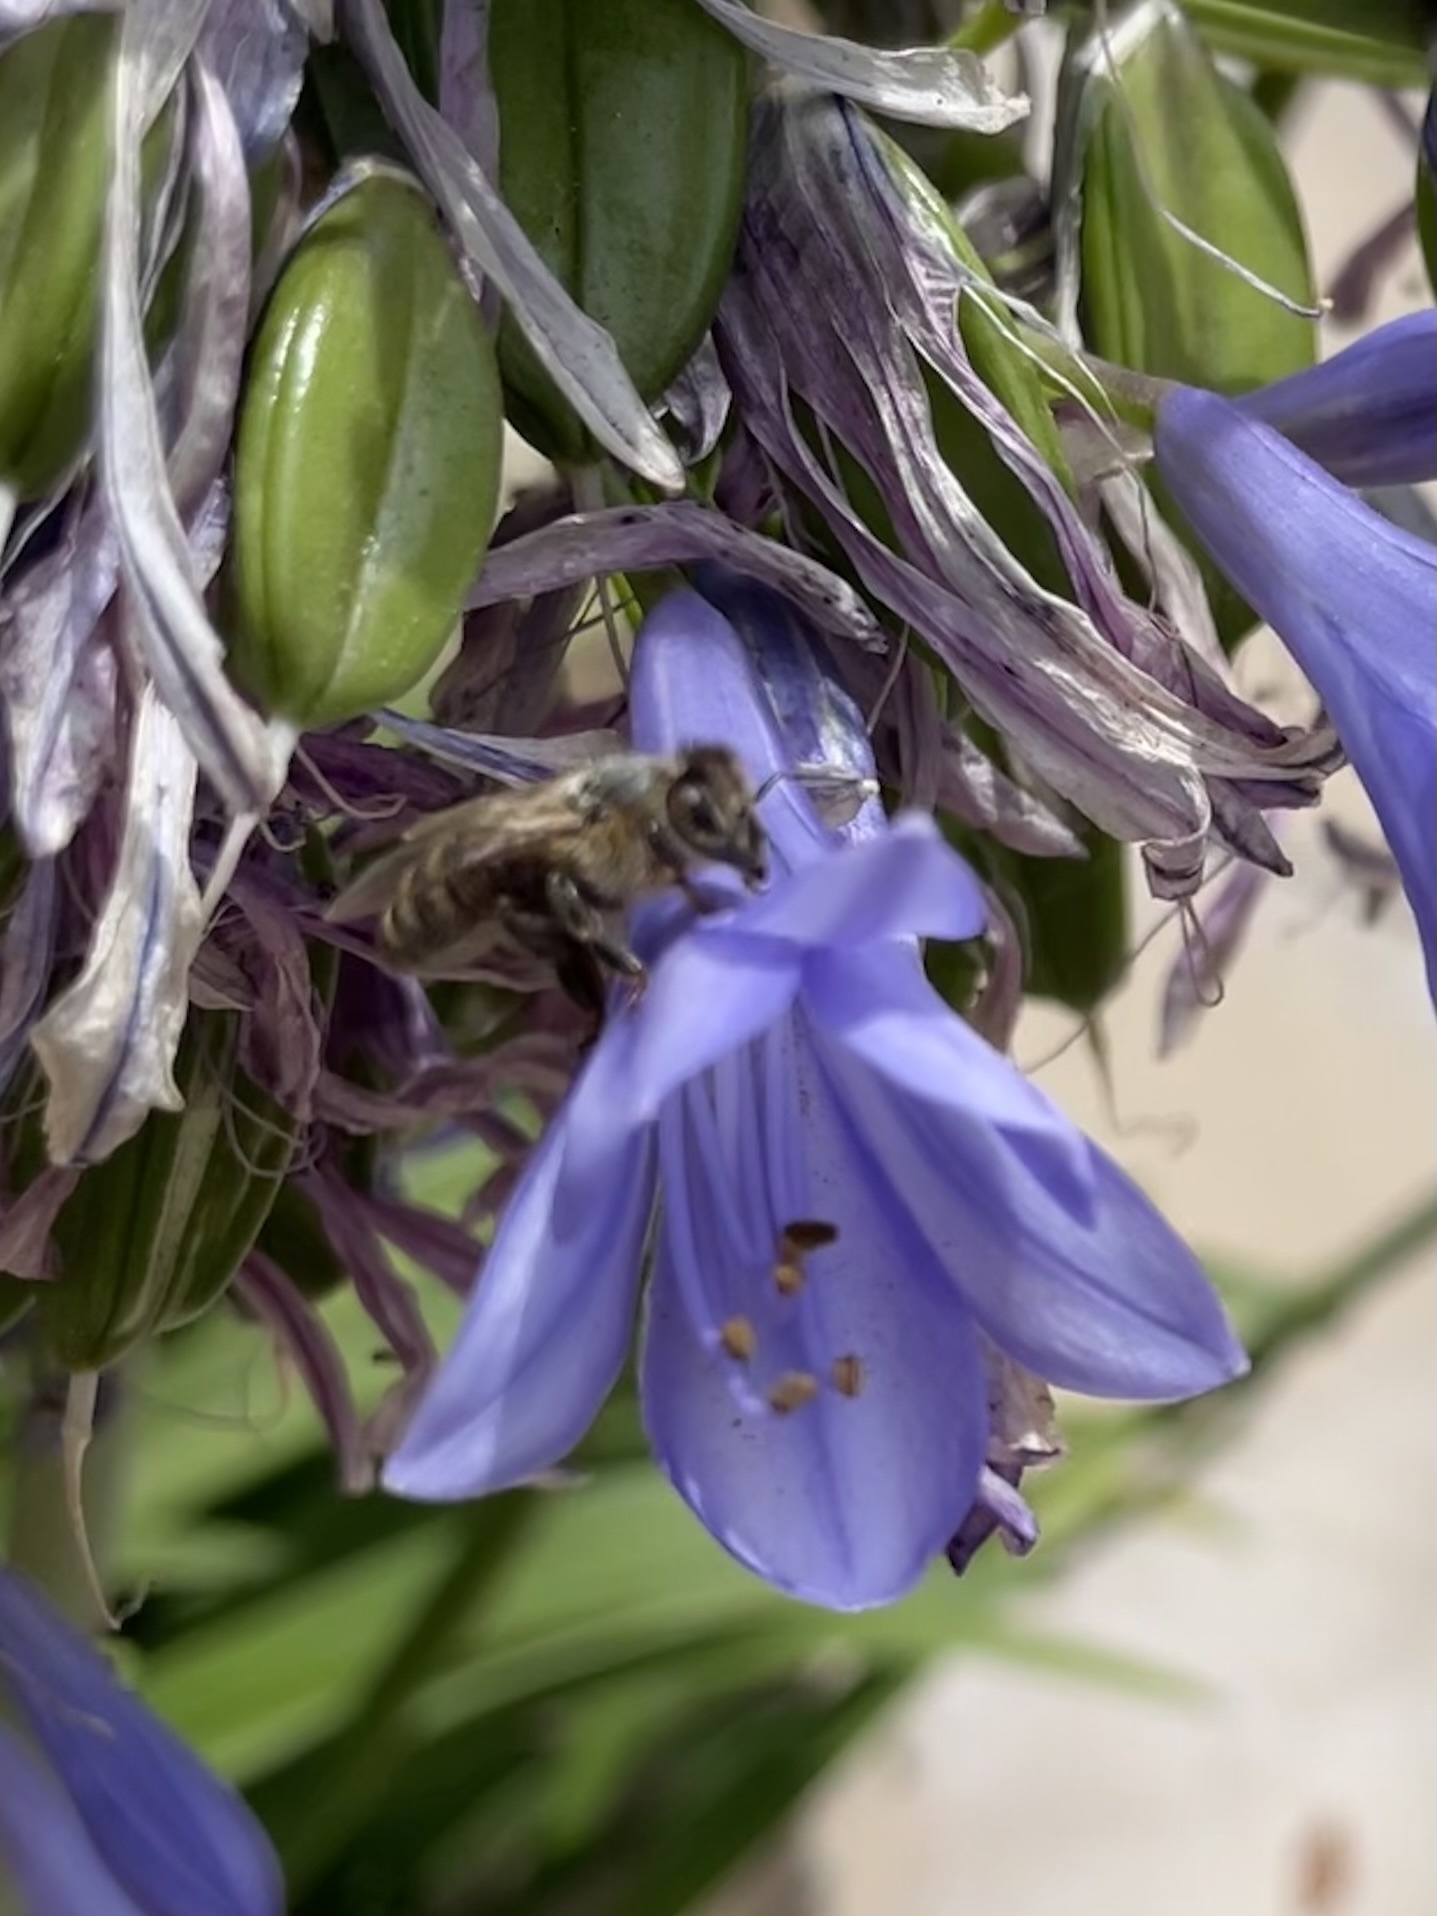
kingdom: Animalia
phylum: Arthropoda
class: Insecta
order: Hymenoptera
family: Apidae
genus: Apis
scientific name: Apis mellifera
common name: Honey bee
